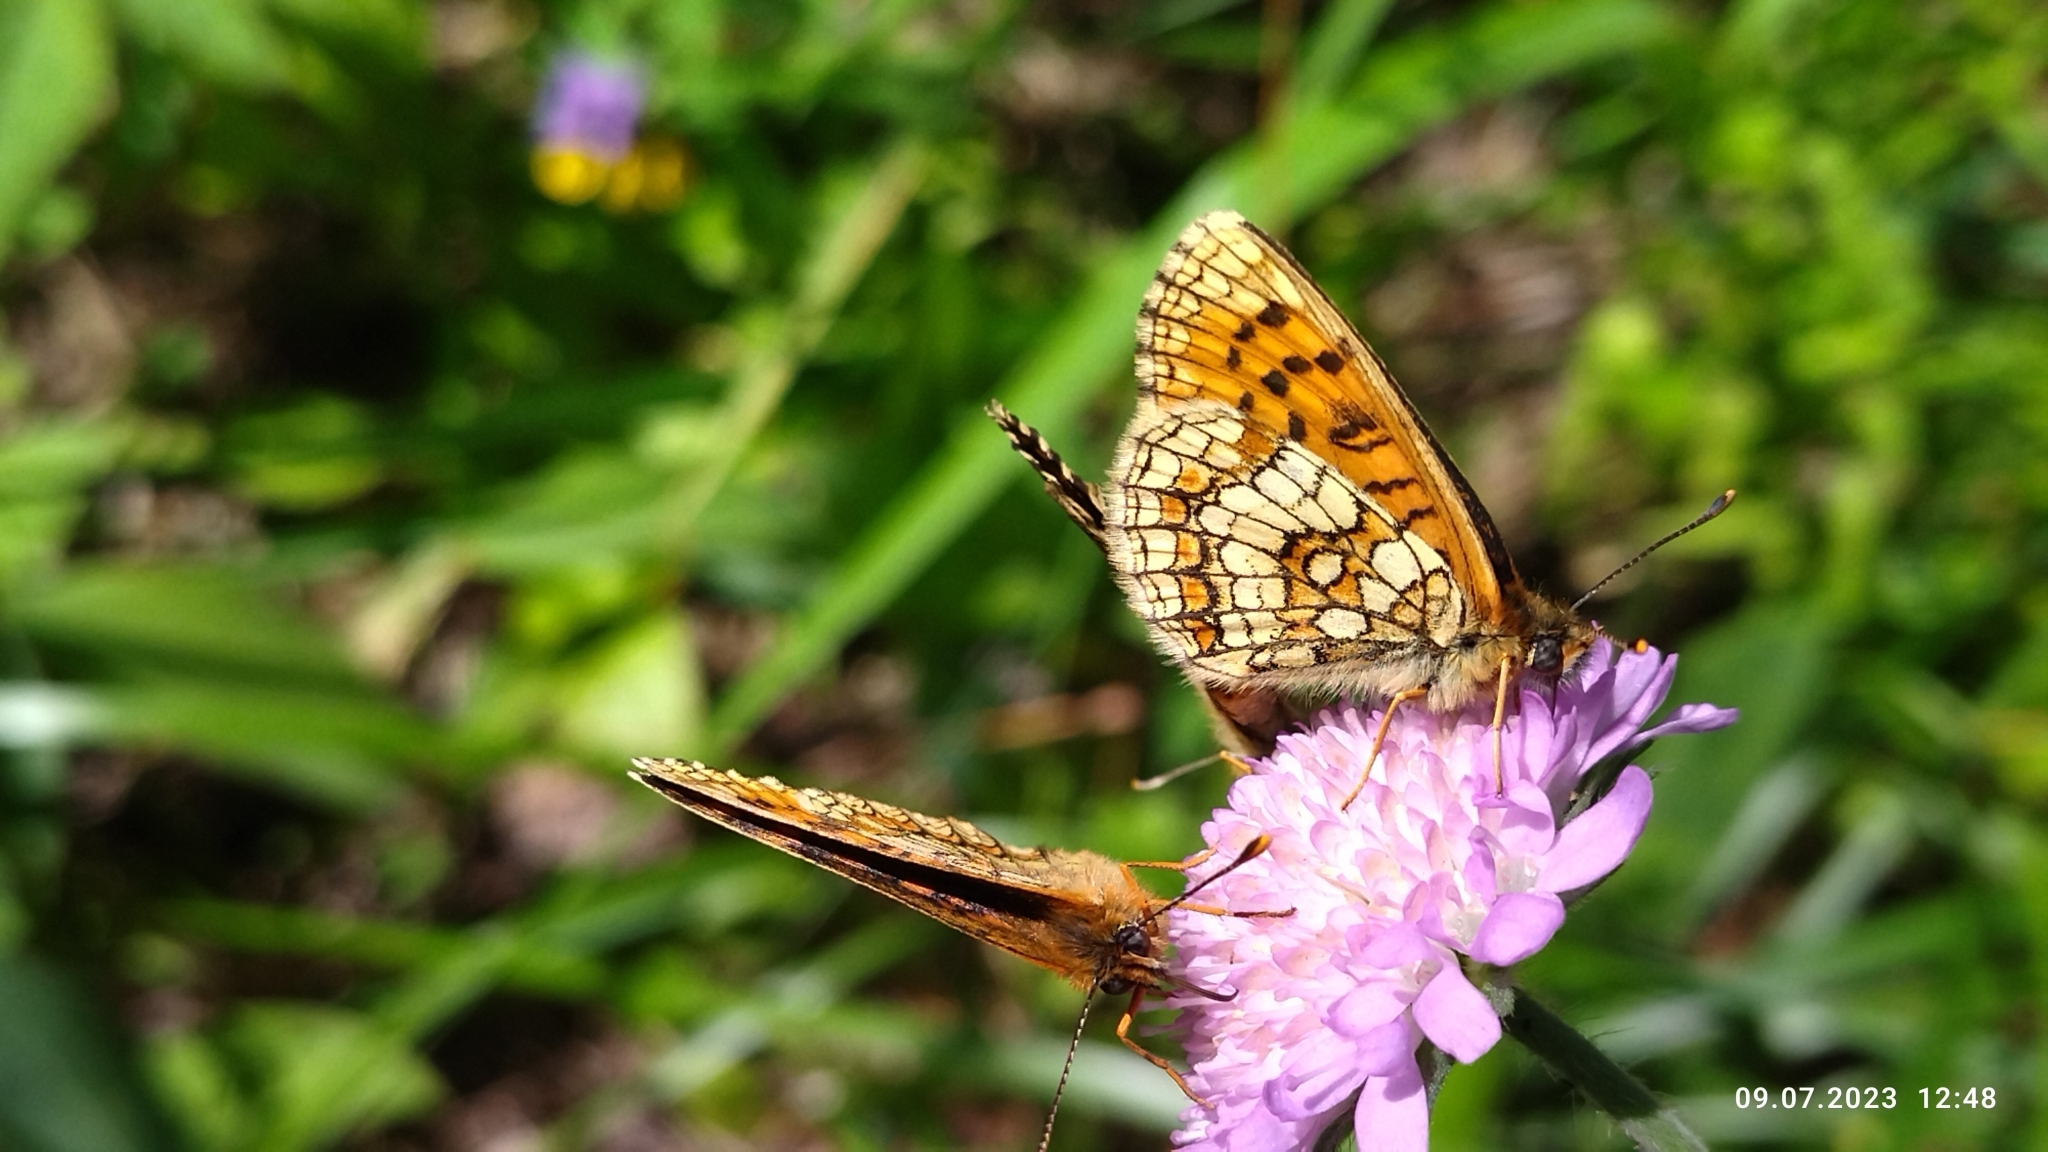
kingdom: Animalia
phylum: Arthropoda
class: Insecta
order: Lepidoptera
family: Nymphalidae
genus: Melitaea
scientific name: Melitaea athalia
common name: Heath fritillary
